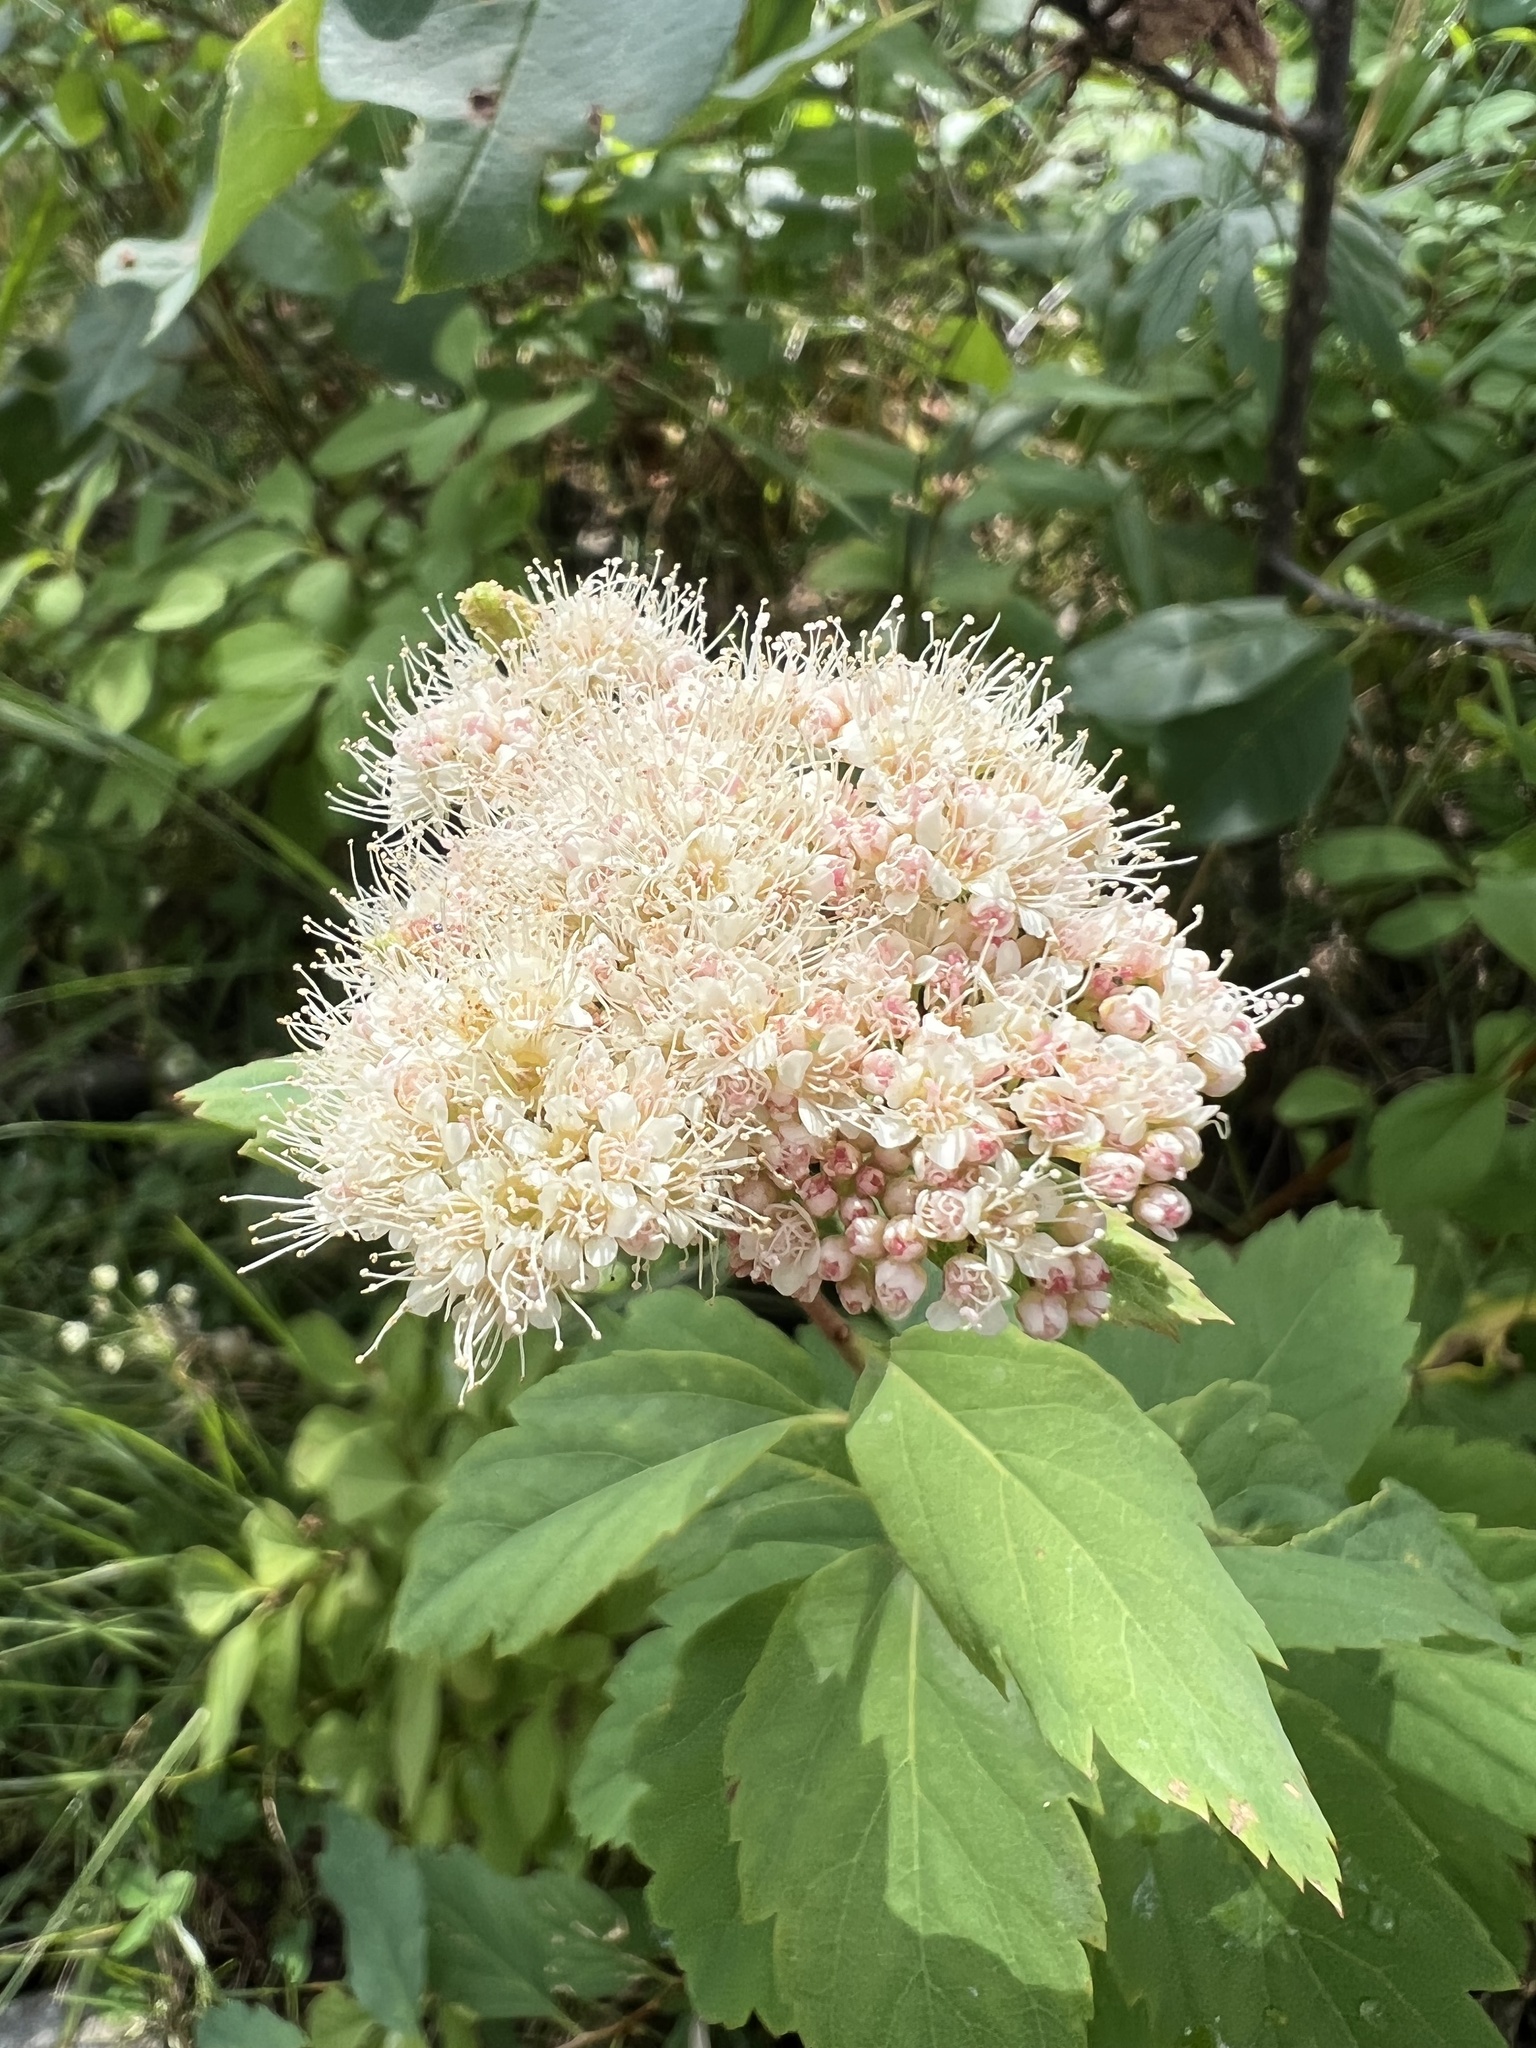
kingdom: Plantae
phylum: Tracheophyta
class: Magnoliopsida
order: Rosales
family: Rosaceae
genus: Spiraea
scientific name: Spiraea lucida
